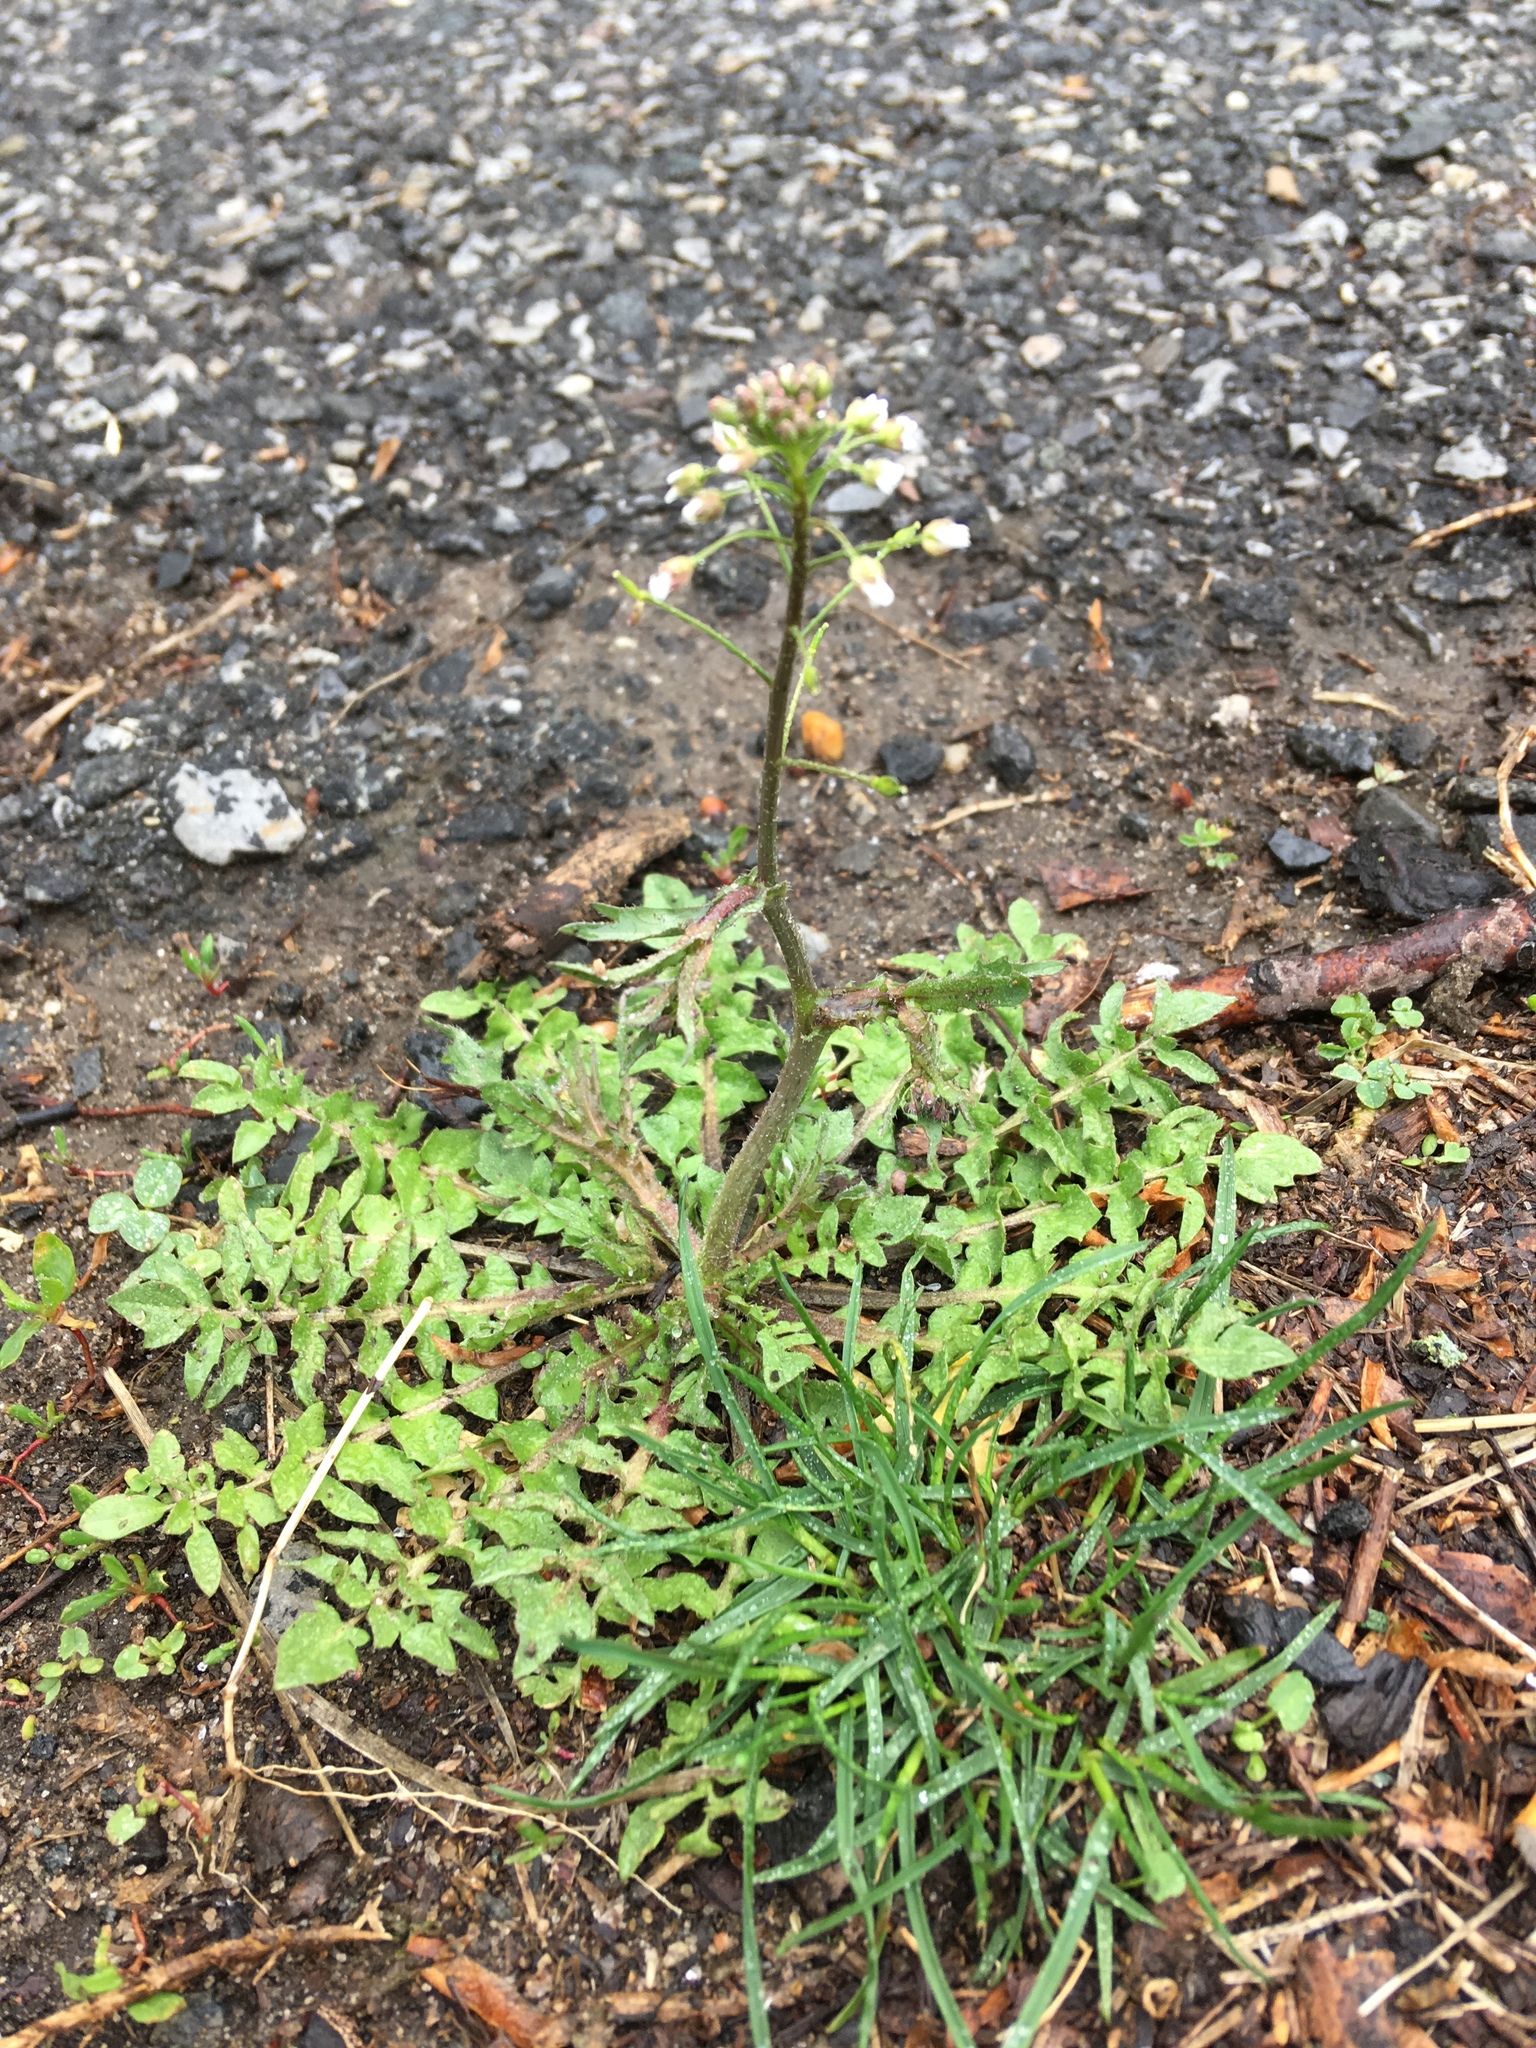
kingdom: Plantae
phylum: Tracheophyta
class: Magnoliopsida
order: Brassicales
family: Brassicaceae
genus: Capsella
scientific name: Capsella bursa-pastoris
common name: Shepherd's purse
